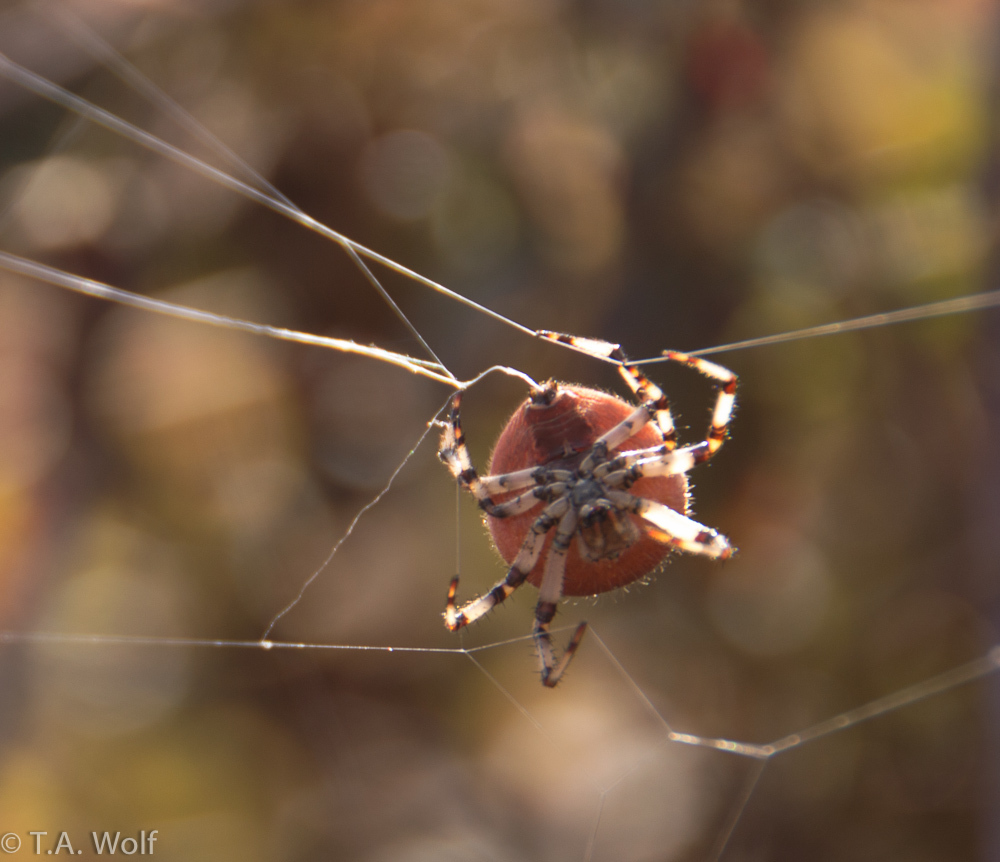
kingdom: Animalia
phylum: Arthropoda
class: Arachnida
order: Araneae
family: Araneidae
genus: Araneus
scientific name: Araneus trifolium
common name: Shamrock orbweaver
